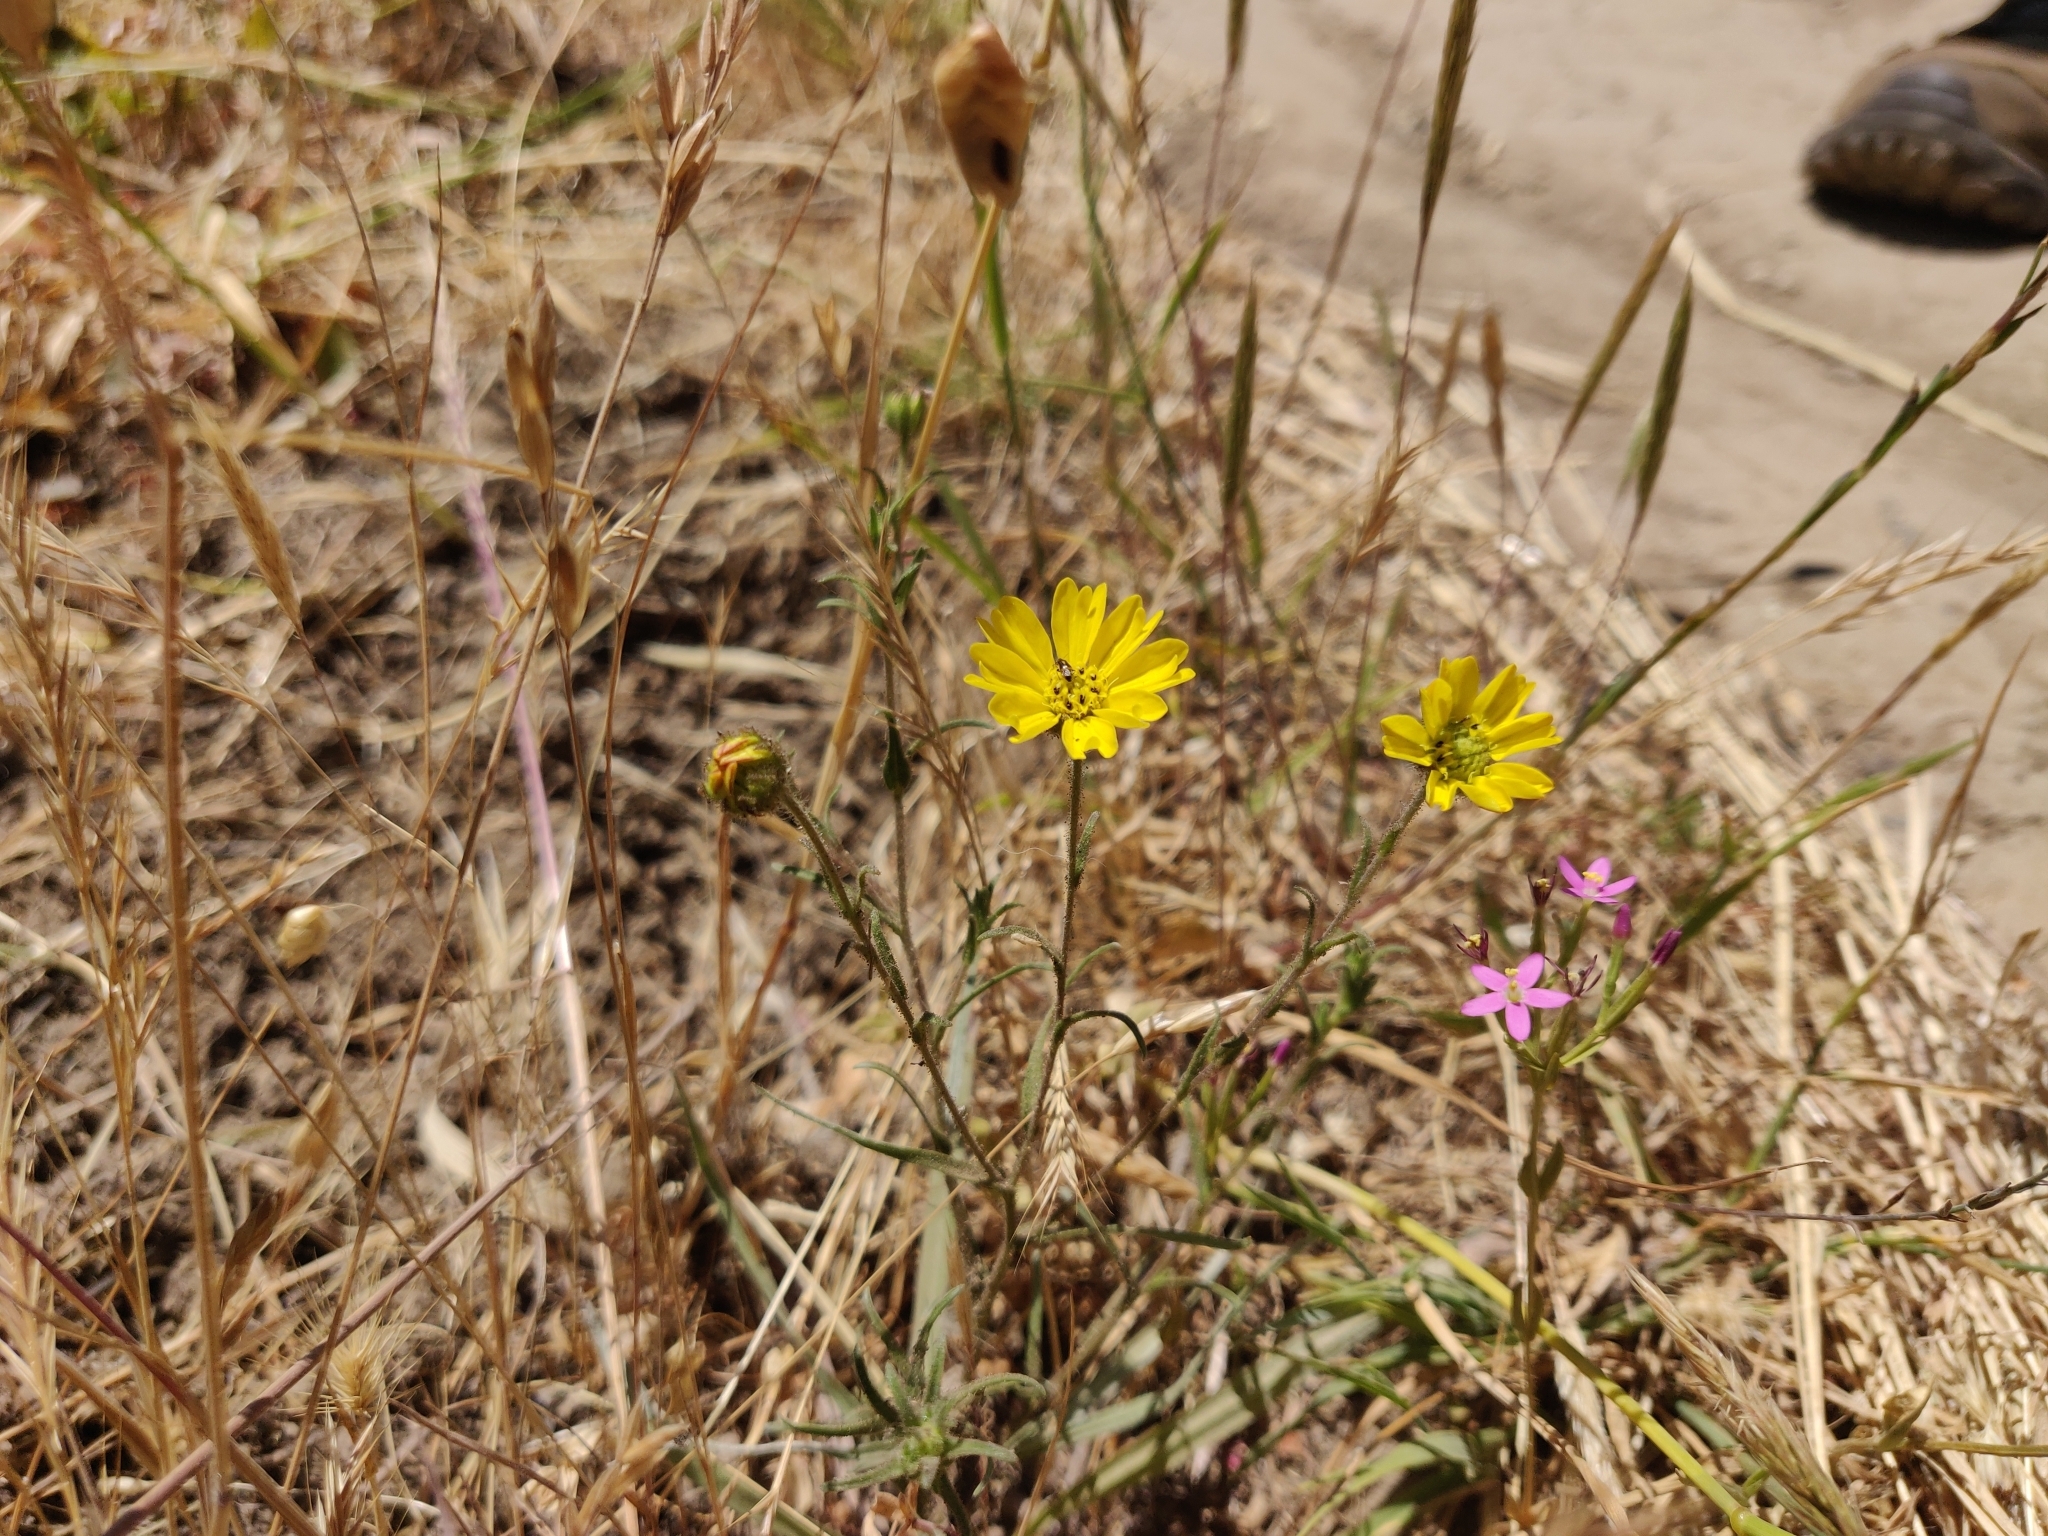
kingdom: Plantae
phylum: Tracheophyta
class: Magnoliopsida
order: Asterales
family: Asteraceae
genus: Hemizonia
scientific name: Hemizonia congesta
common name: Hayfield tarweed
